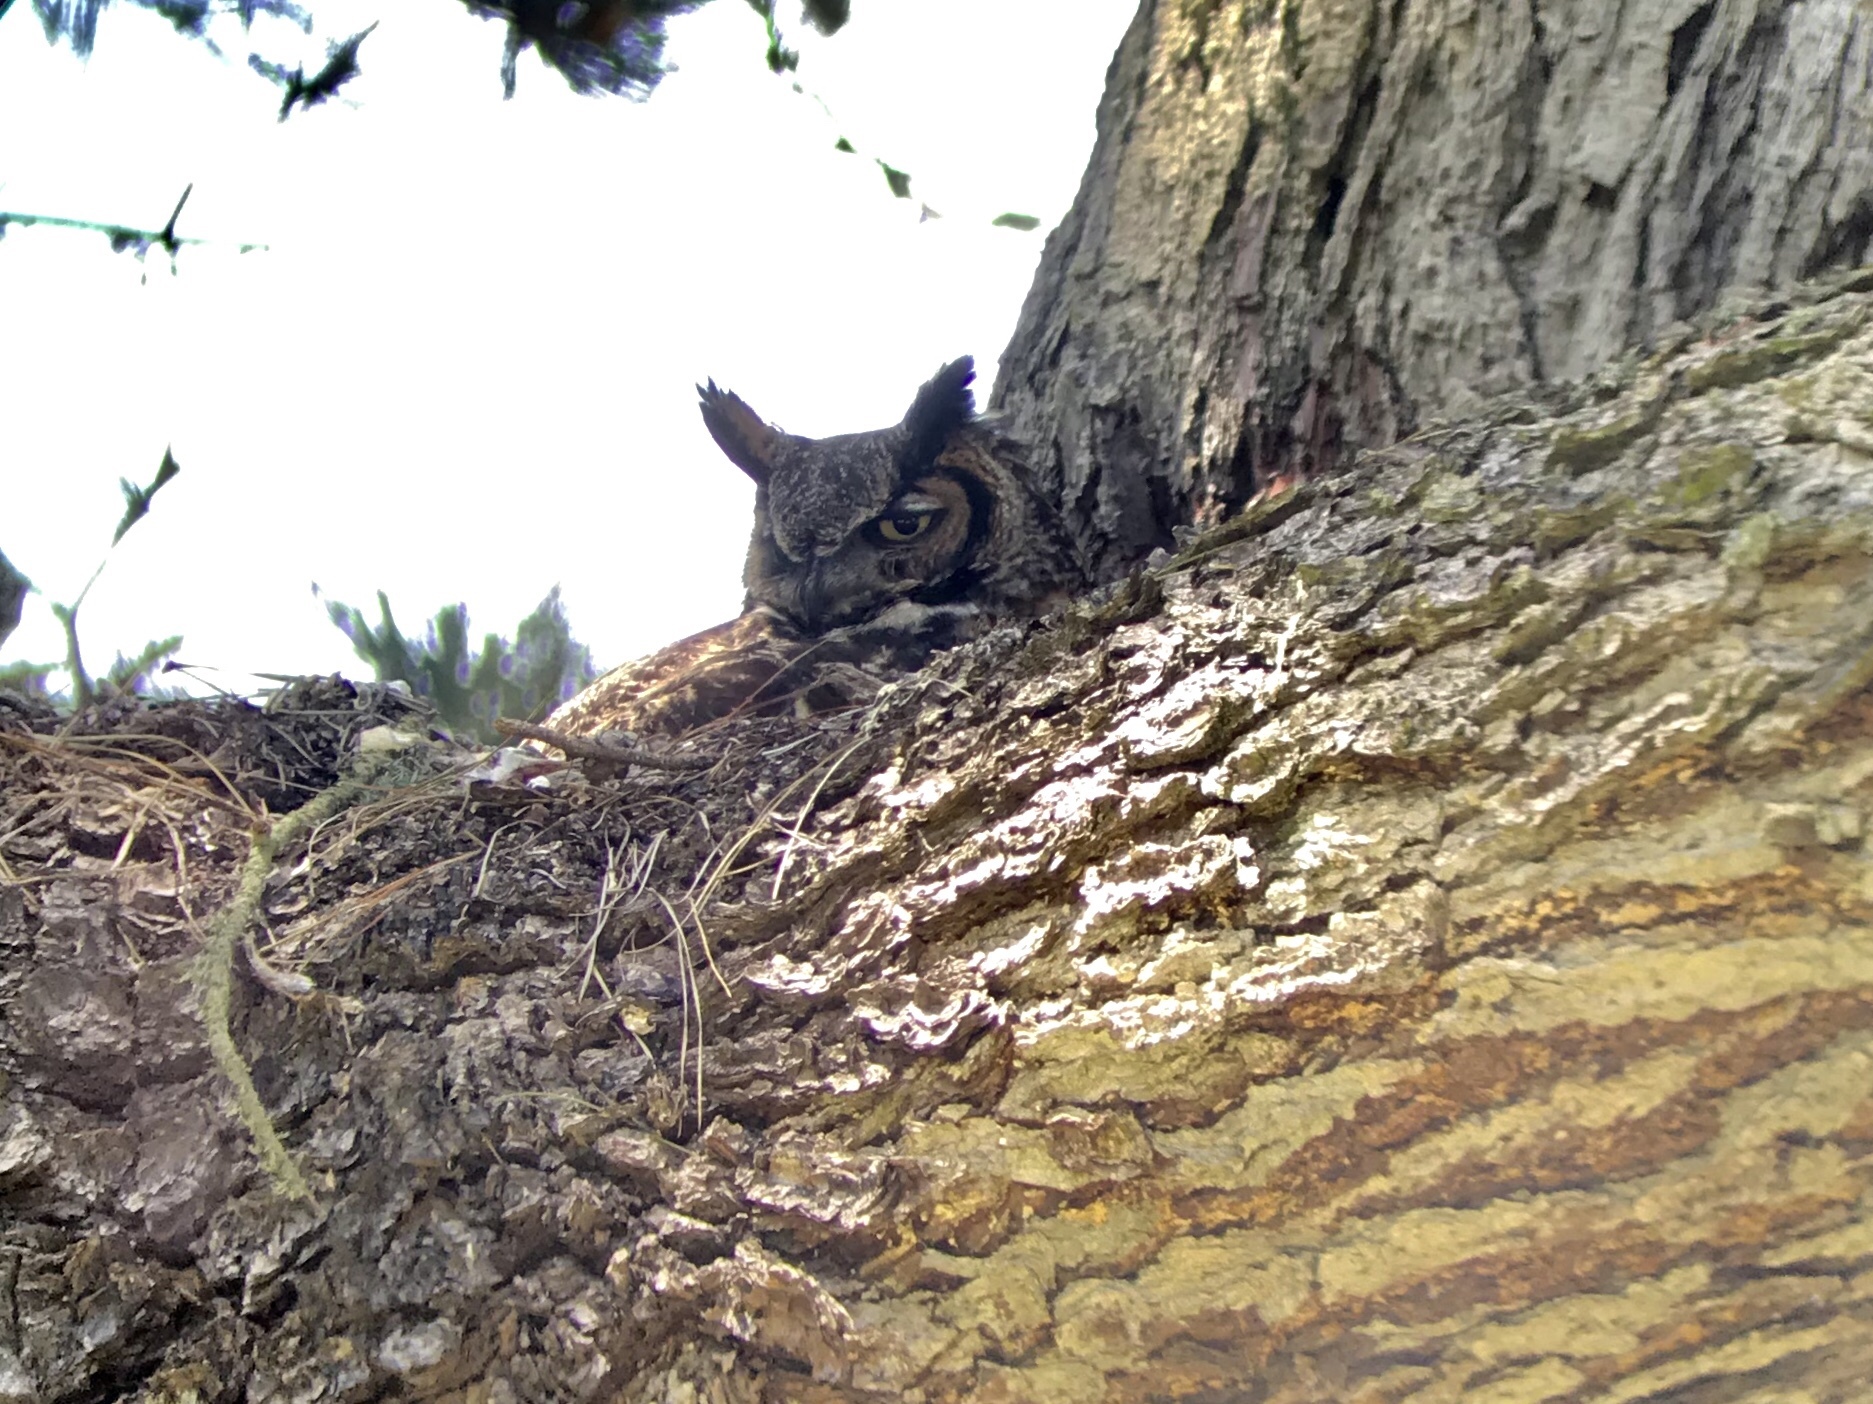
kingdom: Animalia
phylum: Chordata
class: Aves
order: Strigiformes
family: Strigidae
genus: Bubo
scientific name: Bubo virginianus
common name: Great horned owl
